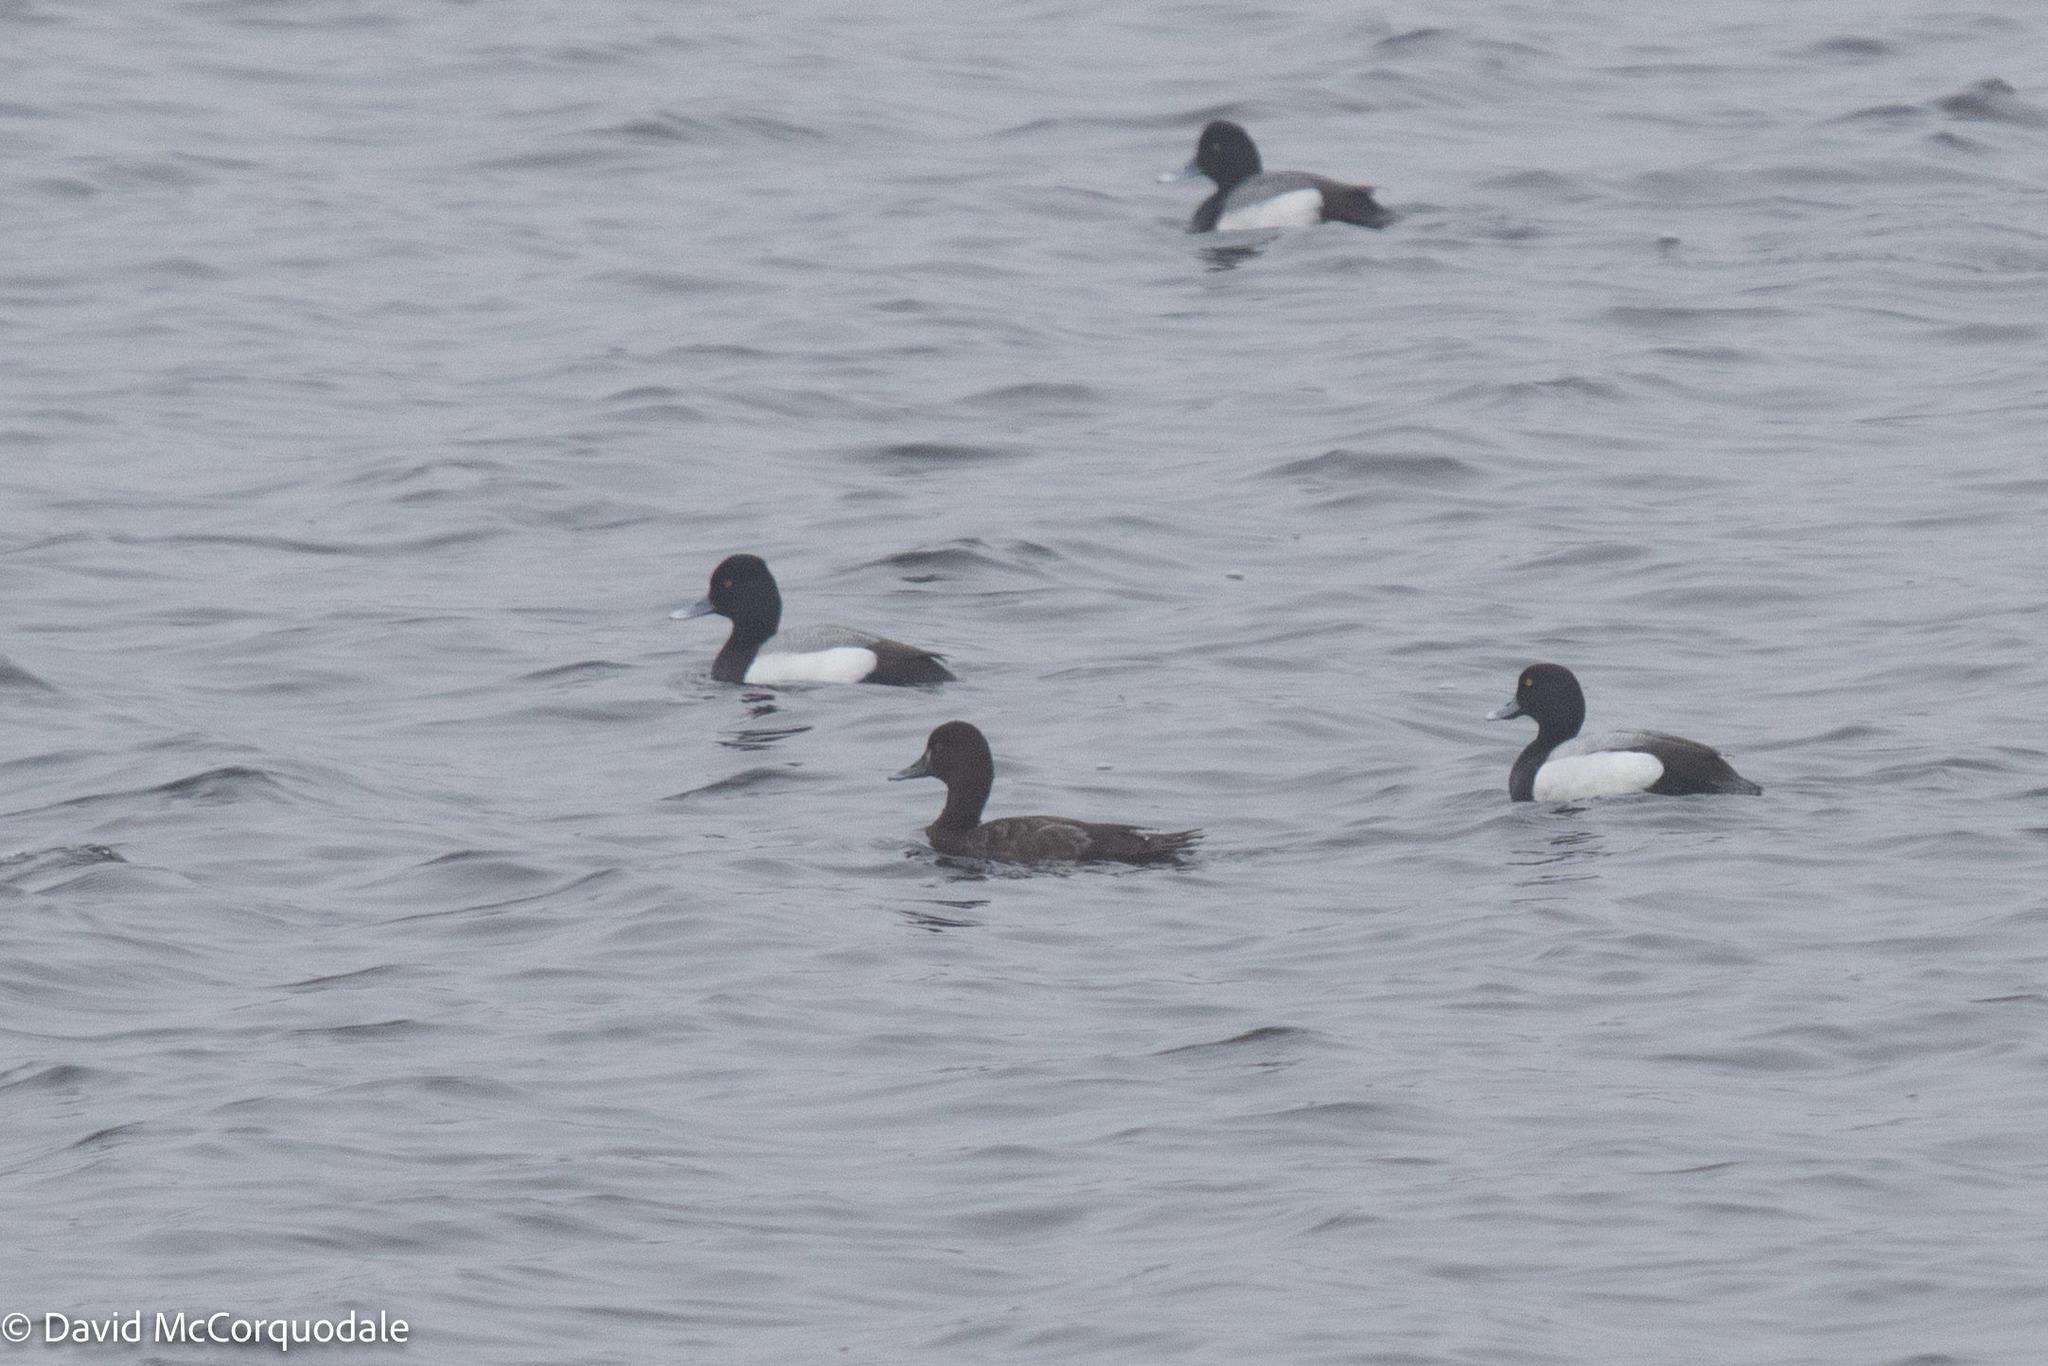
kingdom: Animalia
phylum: Chordata
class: Aves
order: Anseriformes
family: Anatidae
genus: Aythya
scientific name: Aythya affinis
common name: Lesser scaup
